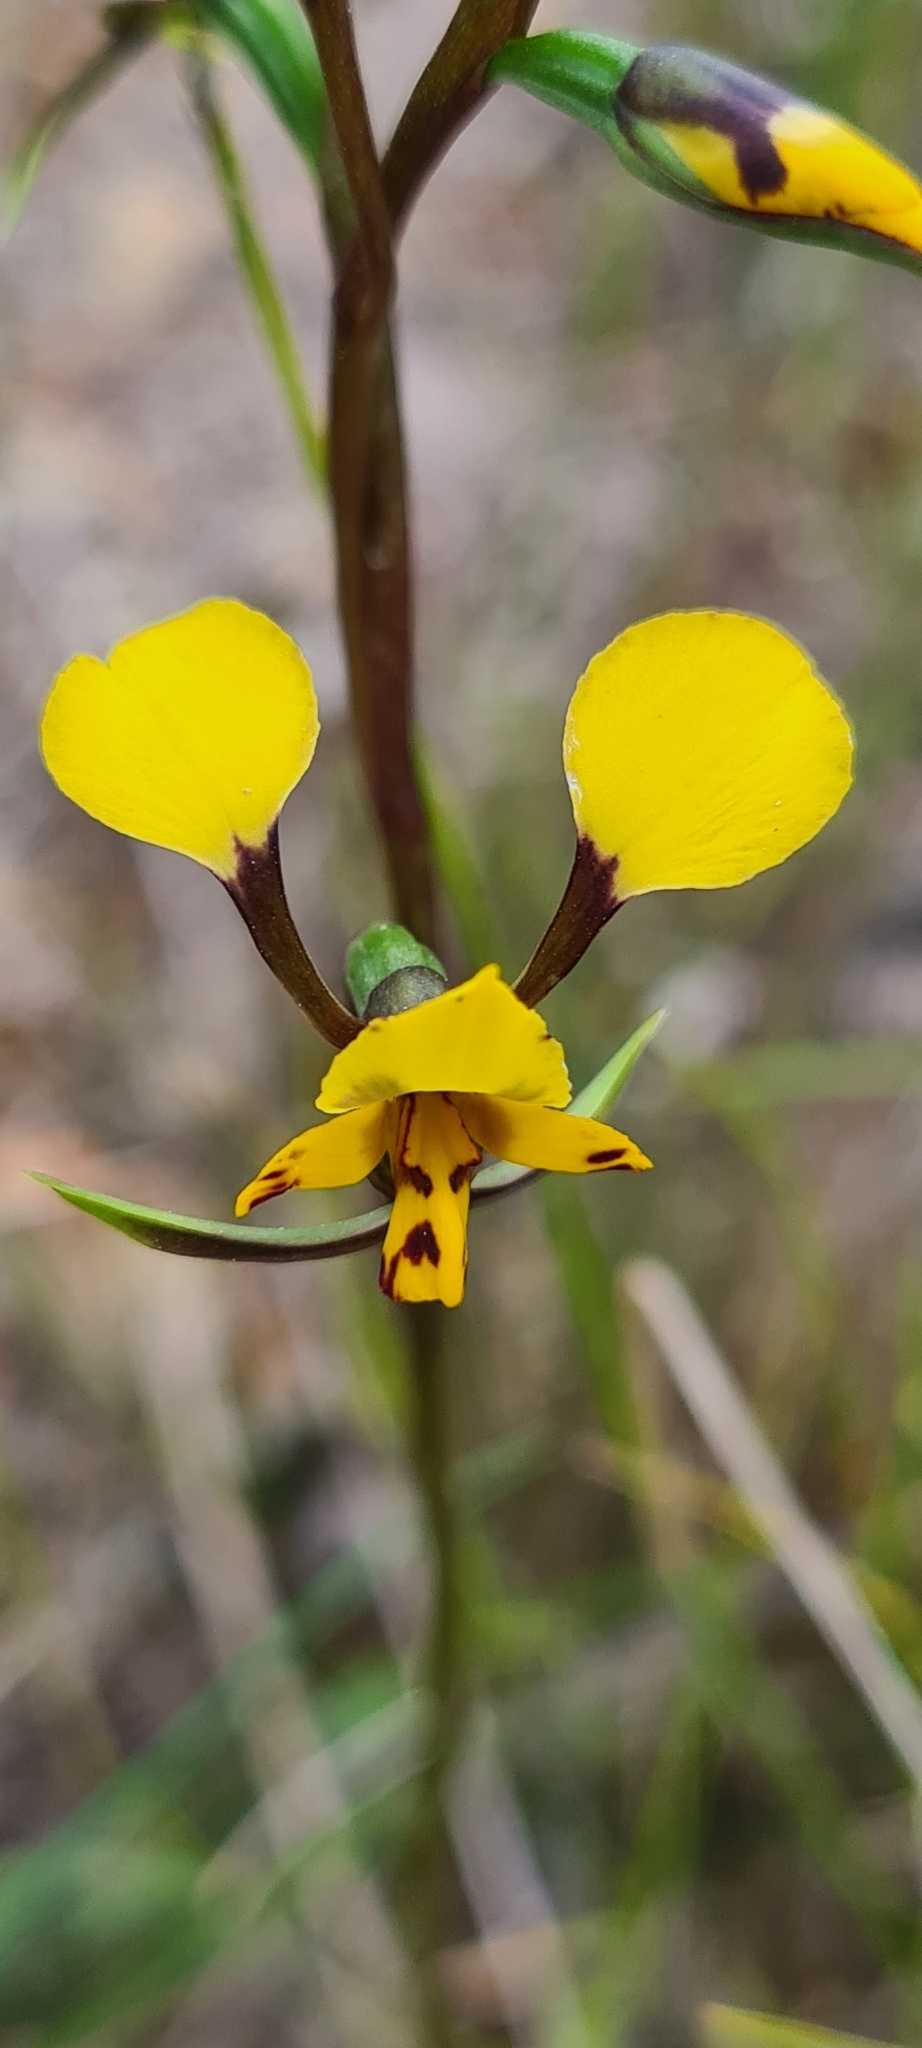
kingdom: Plantae
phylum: Tracheophyta
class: Liliopsida
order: Asparagales
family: Orchidaceae
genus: Diuris
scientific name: Diuris maculata
